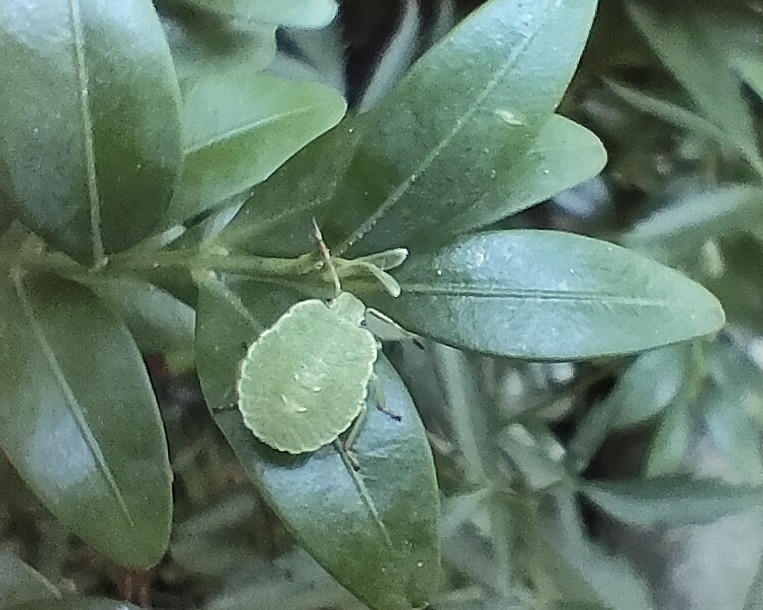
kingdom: Animalia
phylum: Arthropoda
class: Insecta
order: Hemiptera
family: Pentatomidae
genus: Palomena
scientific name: Palomena prasina
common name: Green shieldbug
